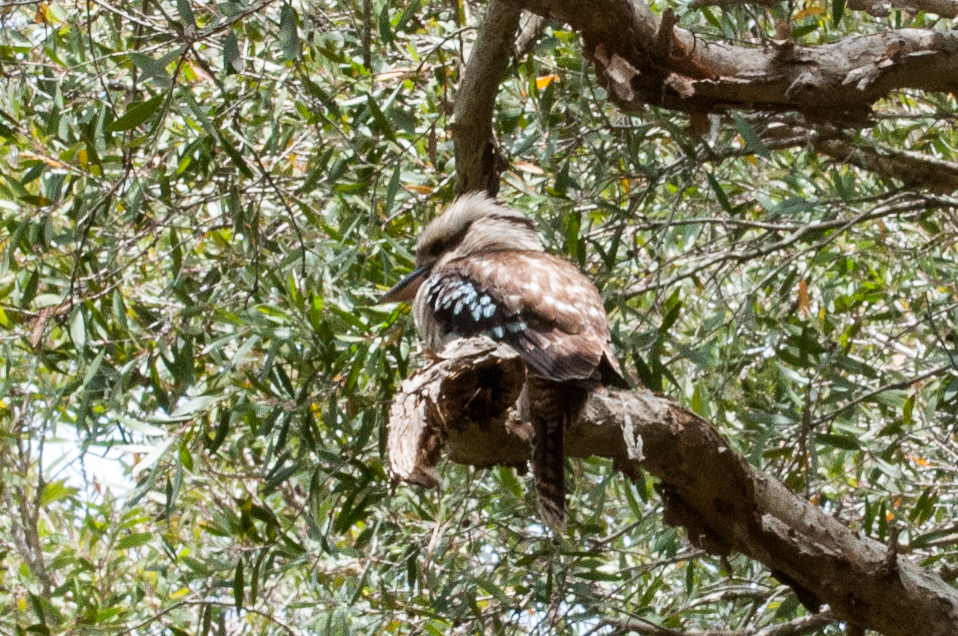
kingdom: Animalia
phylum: Chordata
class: Aves
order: Coraciiformes
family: Alcedinidae
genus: Dacelo
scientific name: Dacelo novaeguineae
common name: Laughing kookaburra
